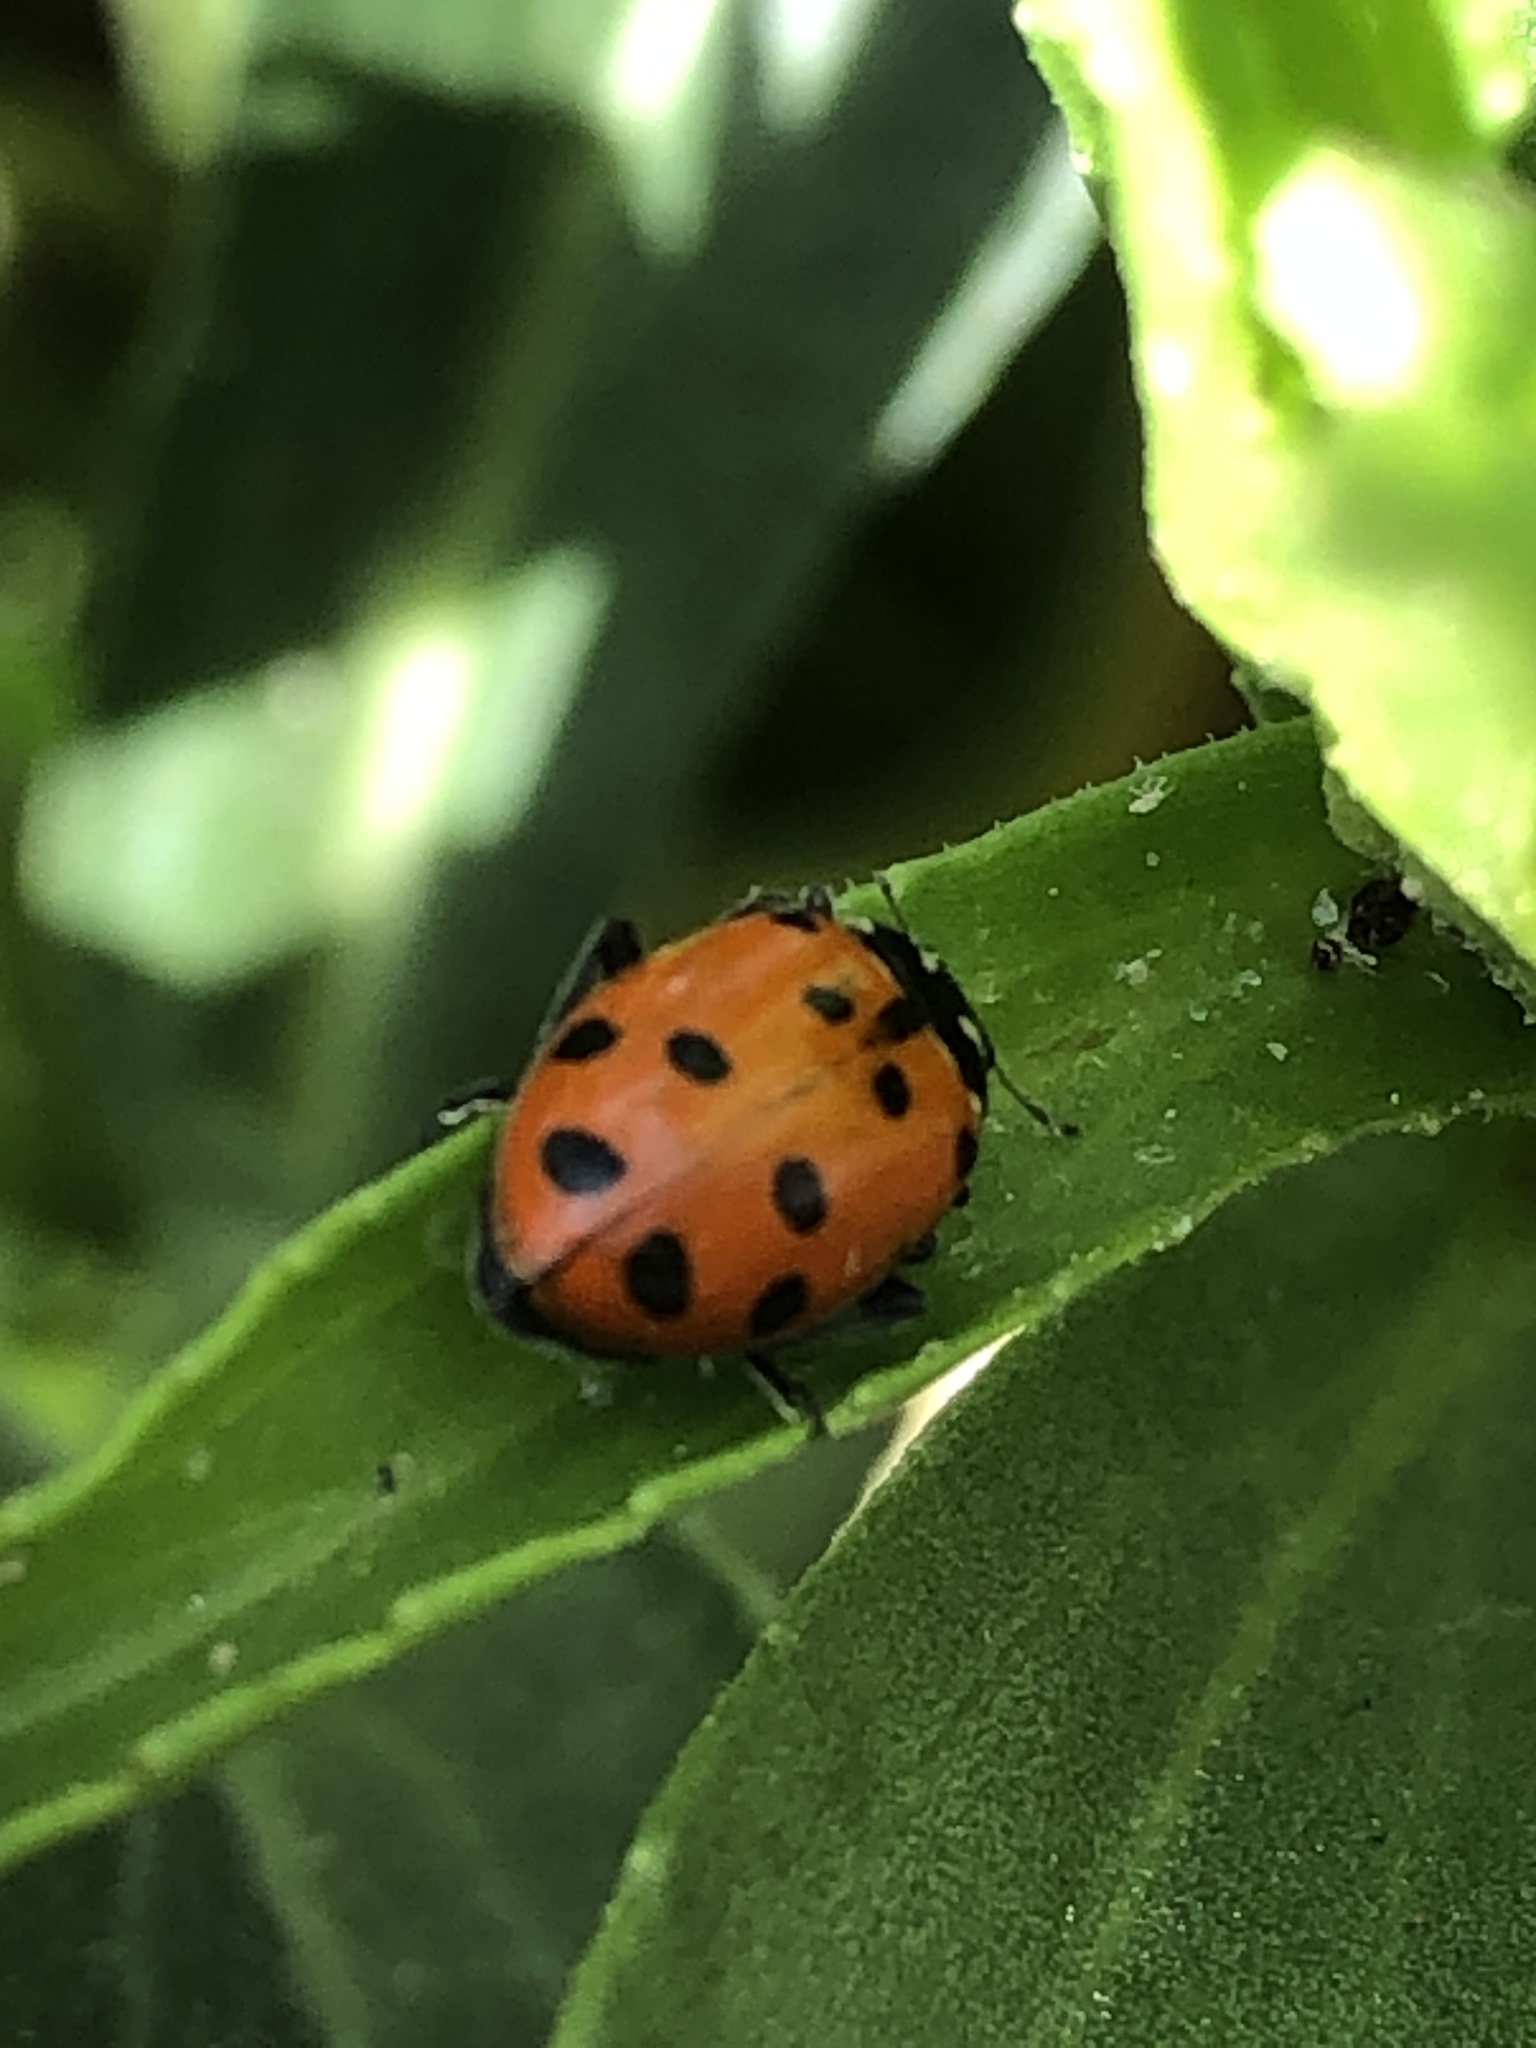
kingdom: Animalia
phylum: Arthropoda
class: Insecta
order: Coleoptera
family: Coccinellidae
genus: Hippodamia
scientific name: Hippodamia convergens
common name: Convergent lady beetle
